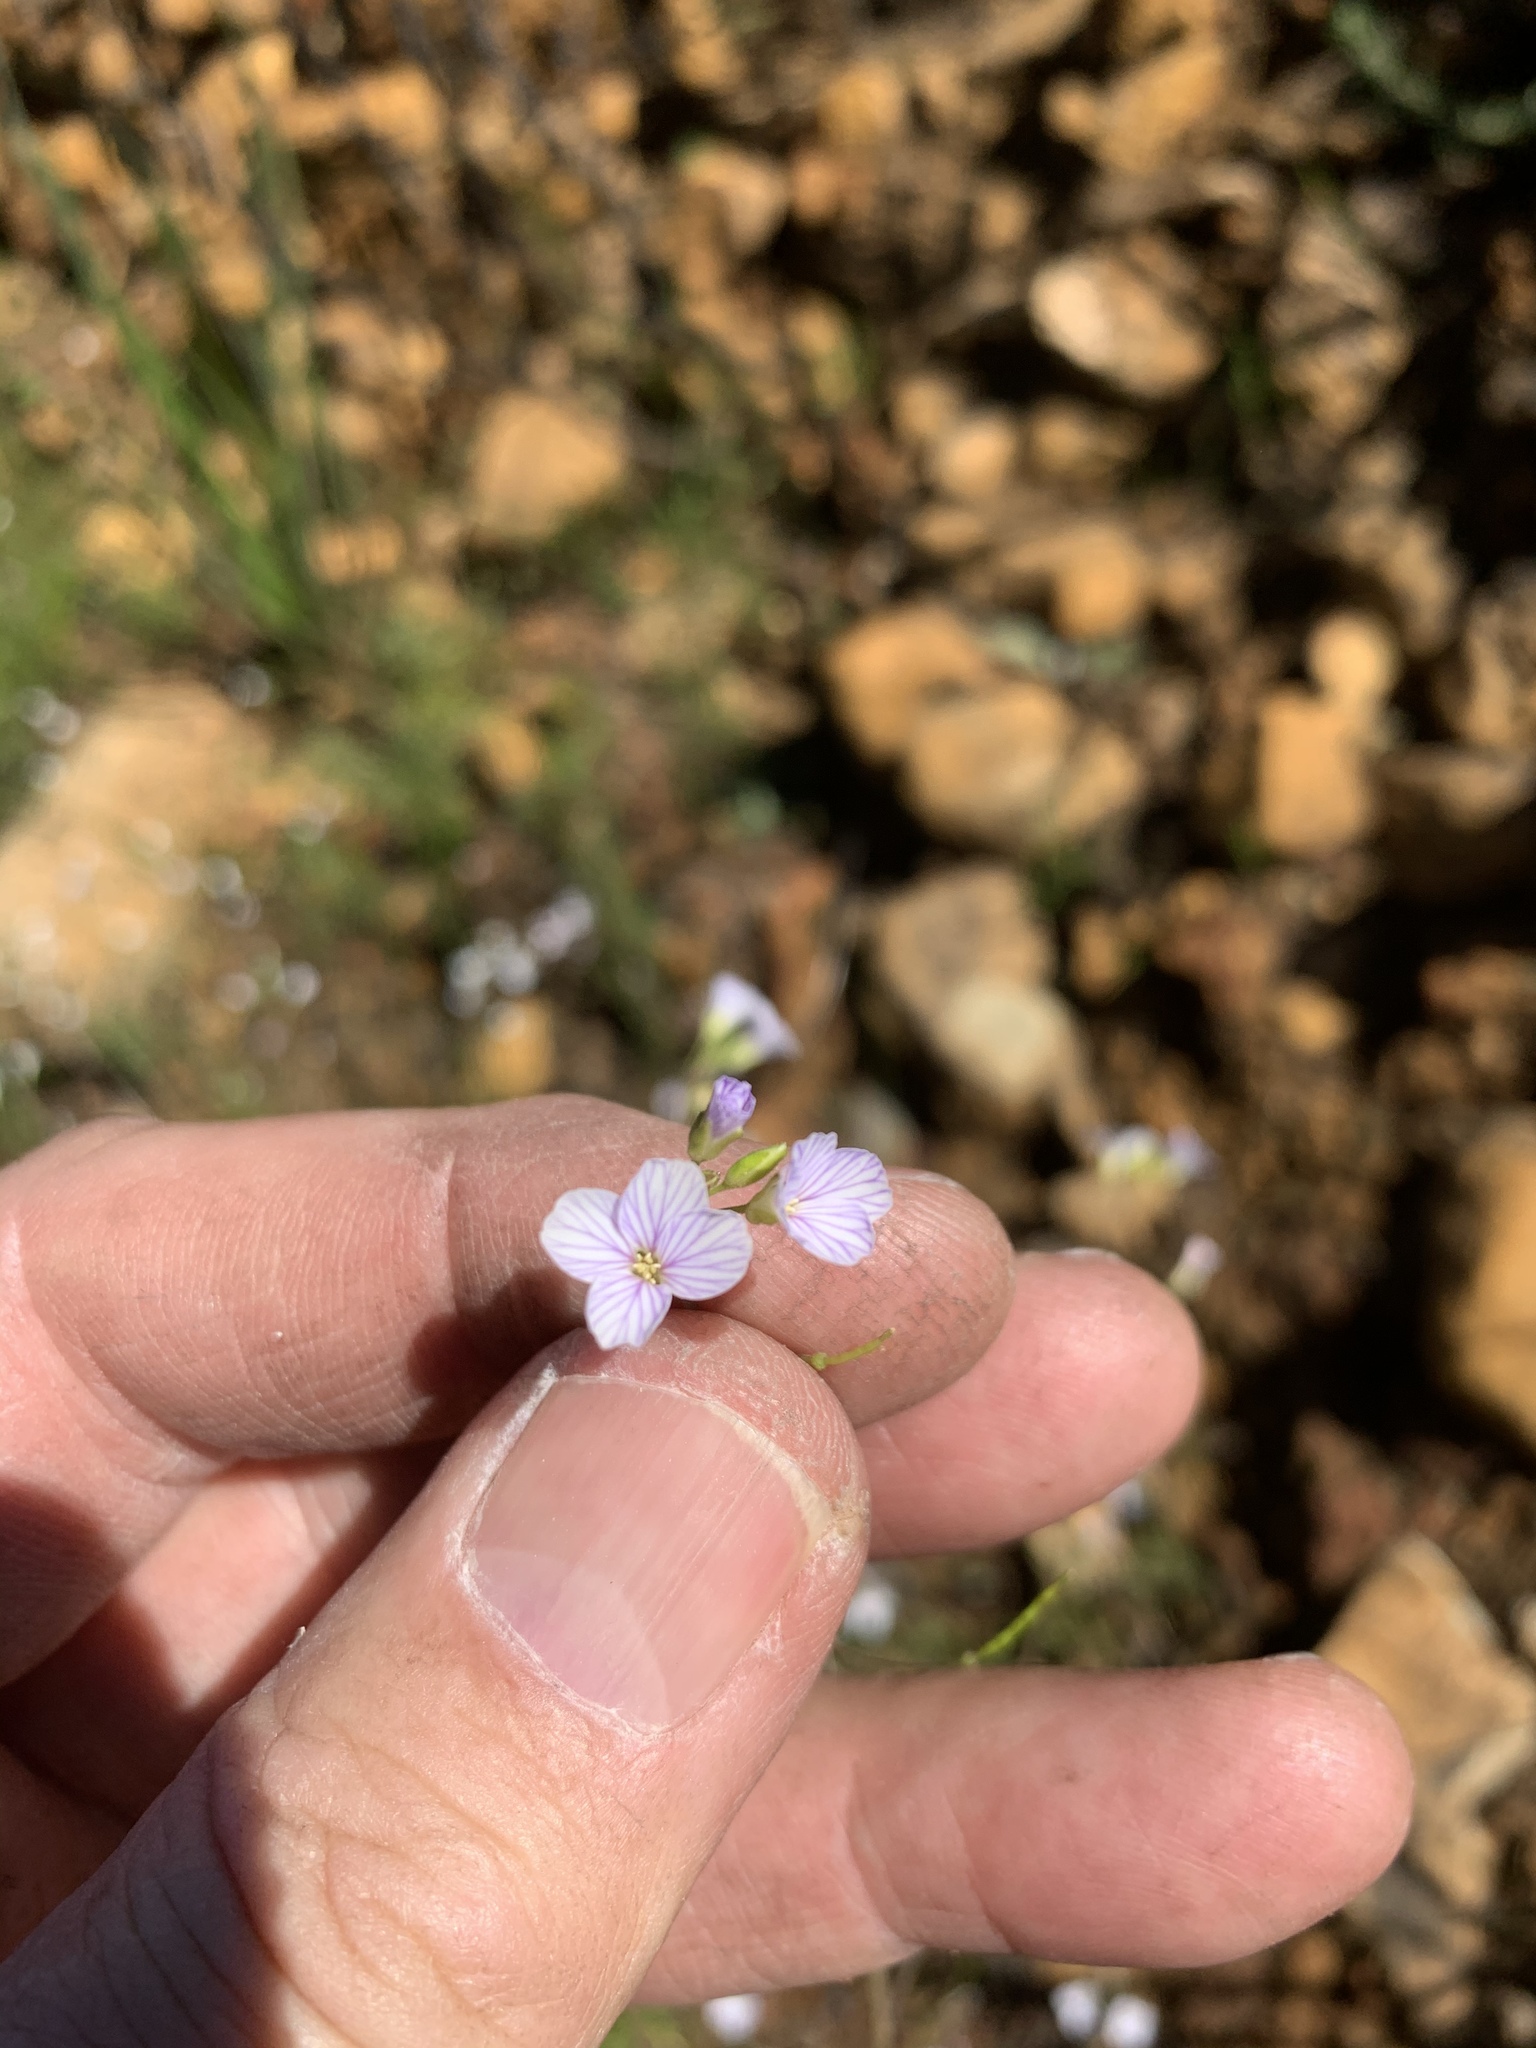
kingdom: Plantae
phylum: Tracheophyta
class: Magnoliopsida
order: Brassicales
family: Brassicaceae
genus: Heliophila
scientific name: Heliophila concatenata
